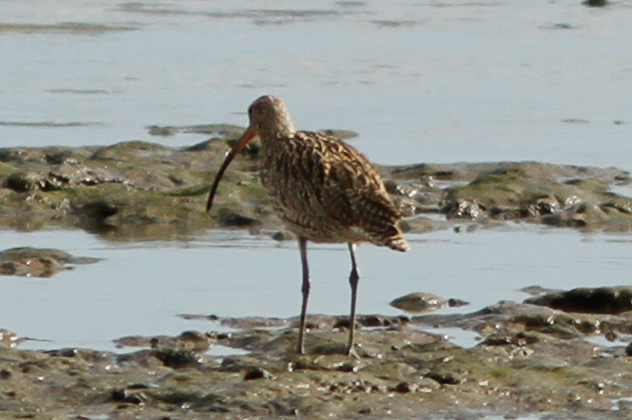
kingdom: Animalia
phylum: Chordata
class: Aves
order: Charadriiformes
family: Scolopacidae
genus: Numenius
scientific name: Numenius madagascariensis
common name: Far eastern curlew
